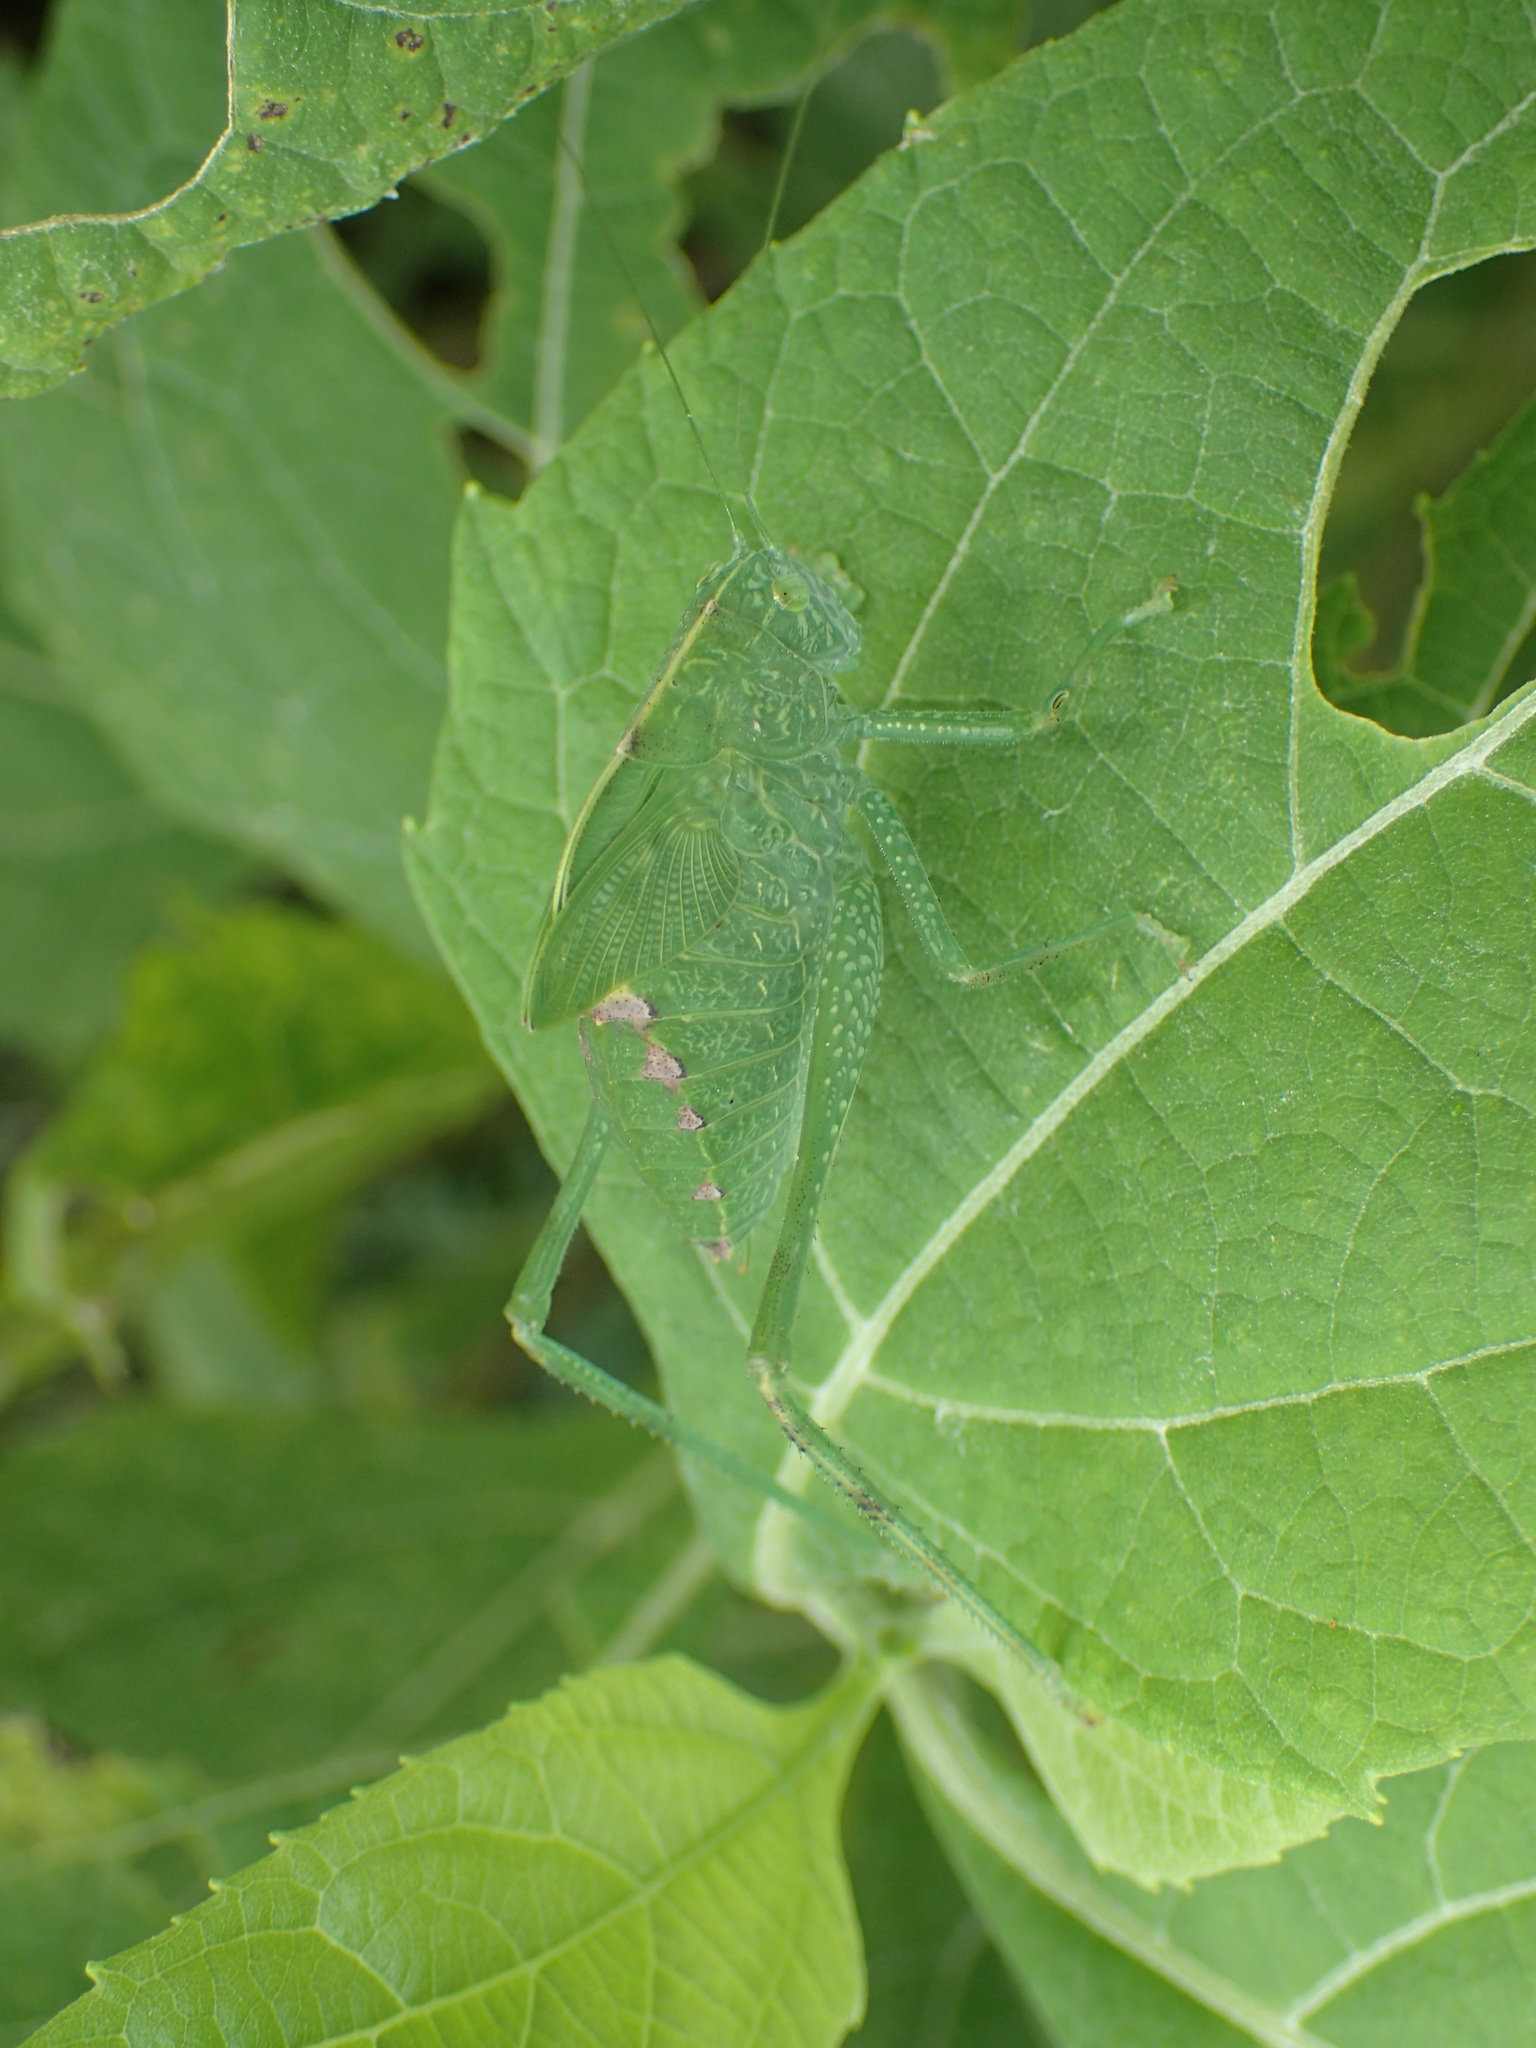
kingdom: Animalia
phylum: Arthropoda
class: Insecta
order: Orthoptera
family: Tettigoniidae
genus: Microcentrum
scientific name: Microcentrum rhombifolium
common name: Broad-winged katydid
